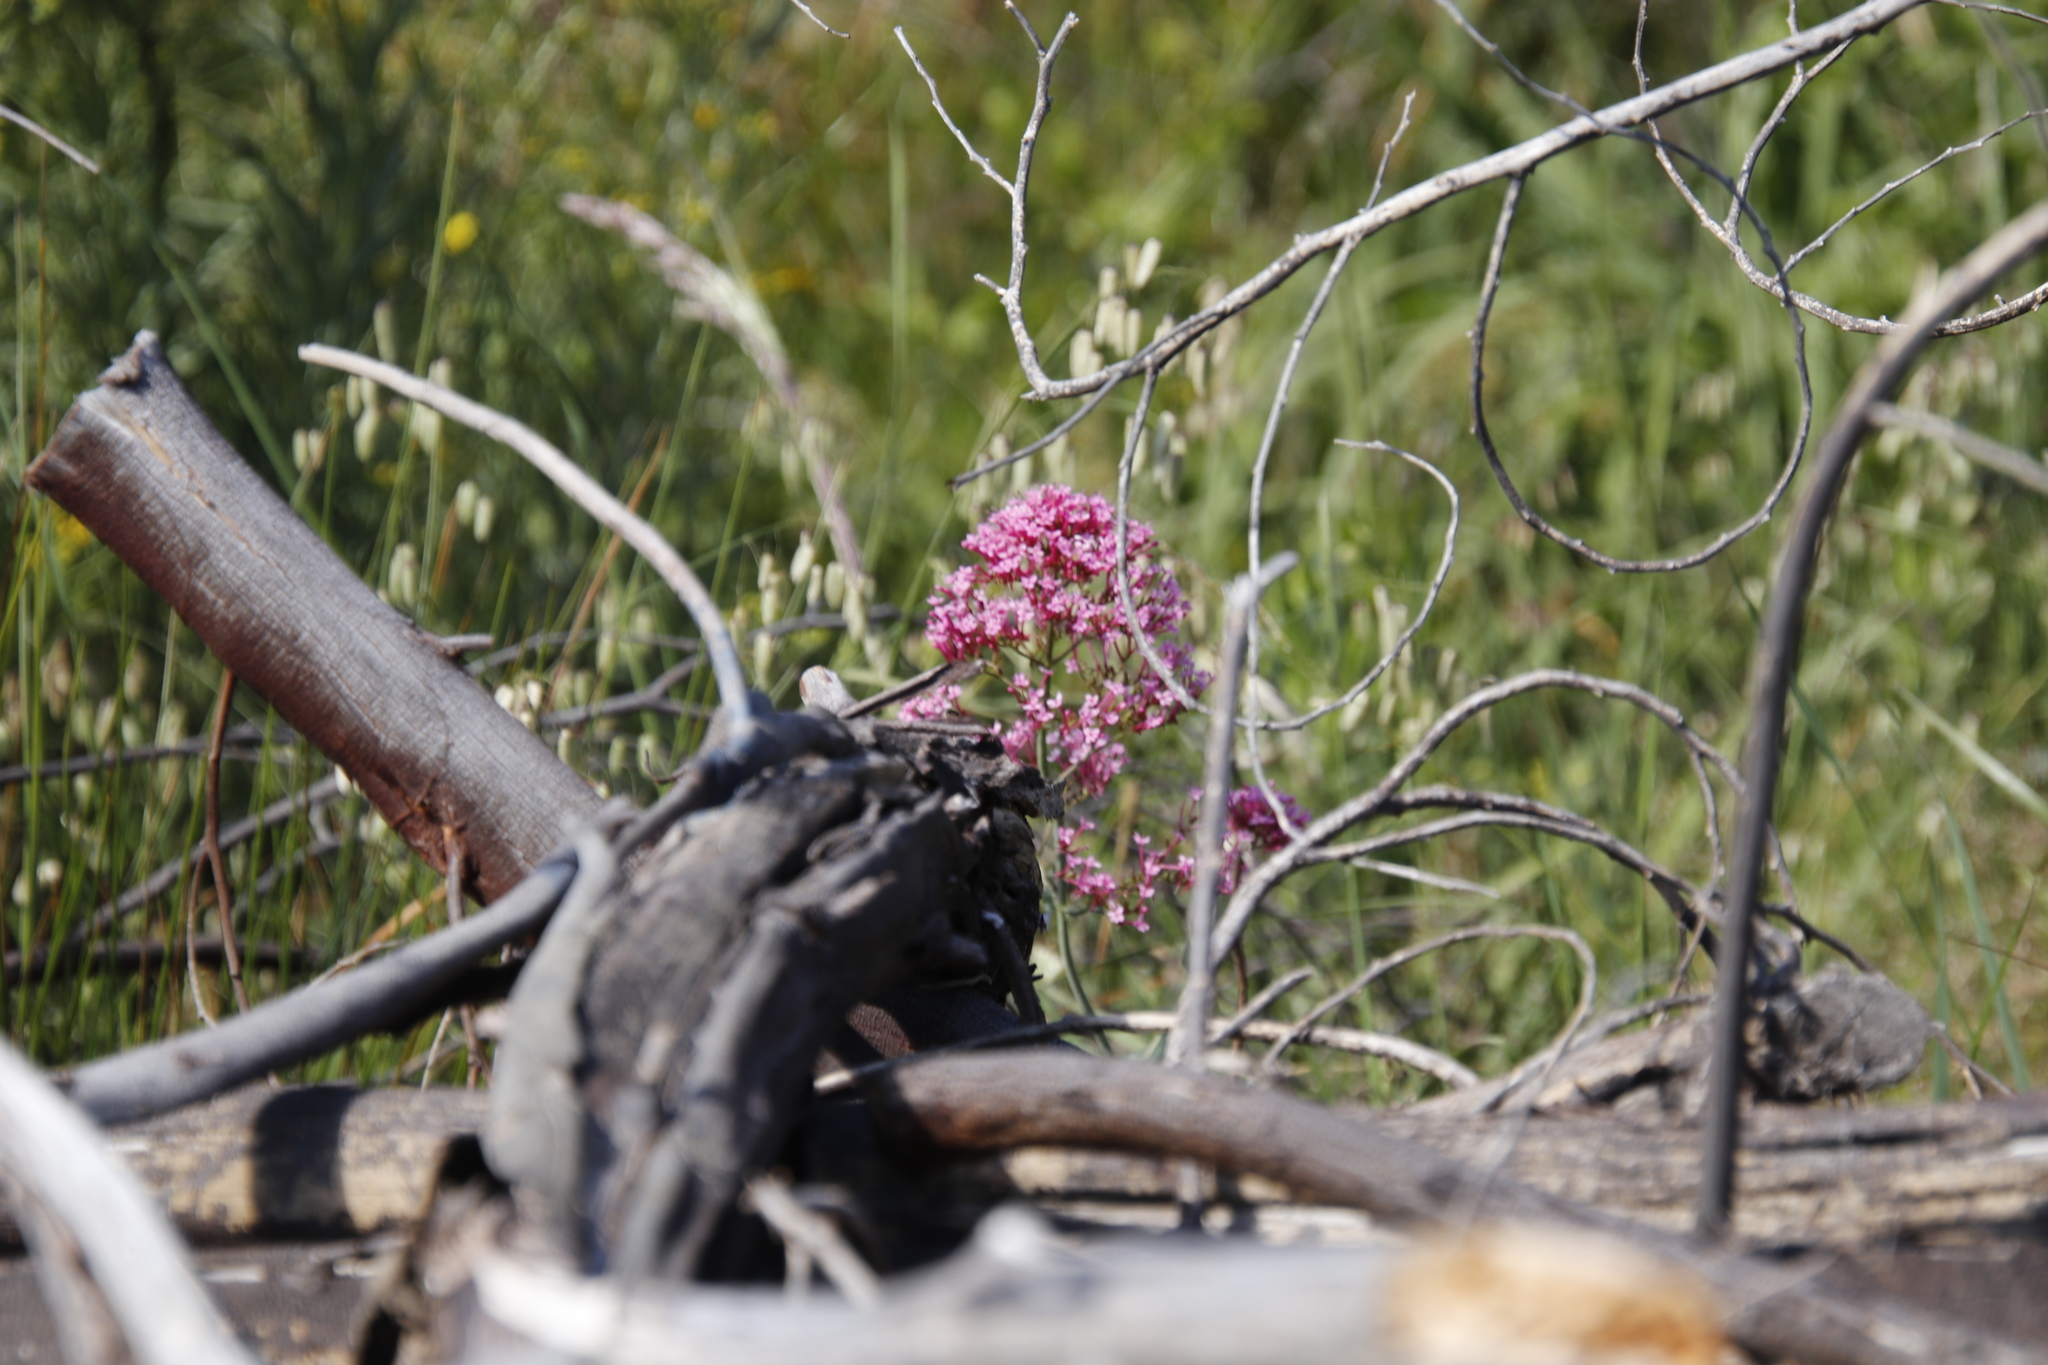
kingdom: Plantae
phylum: Tracheophyta
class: Magnoliopsida
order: Dipsacales
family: Caprifoliaceae
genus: Centranthus
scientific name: Centranthus ruber
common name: Red valerian
